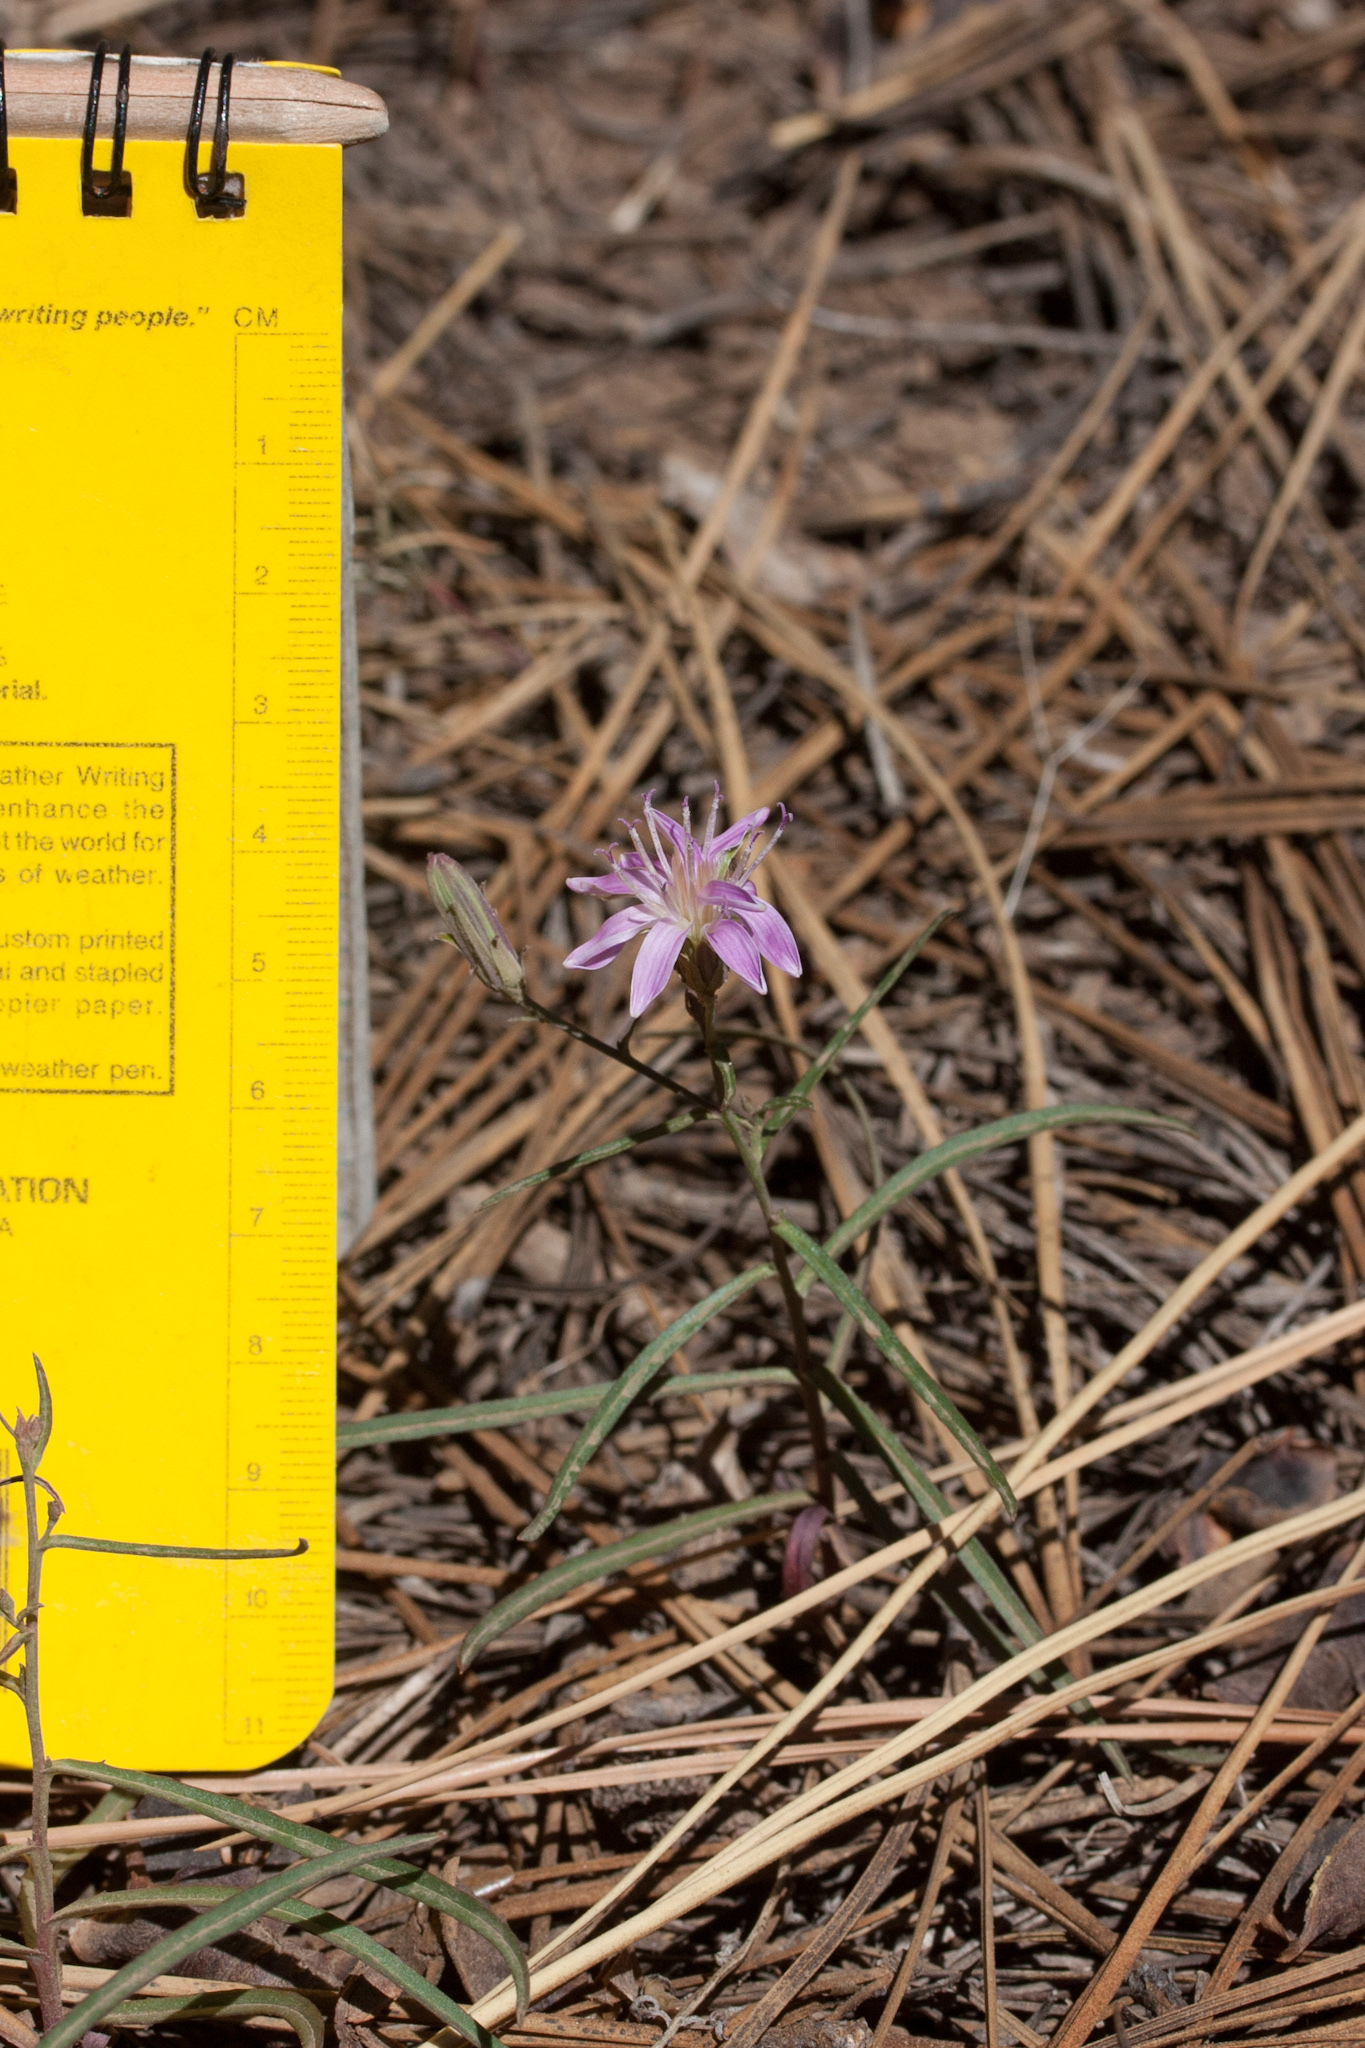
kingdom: Plantae
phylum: Tracheophyta
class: Magnoliopsida
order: Asterales
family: Asteraceae
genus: Stephanomeria
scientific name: Stephanomeria lactucina
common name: Large-flowered wirelettuce
